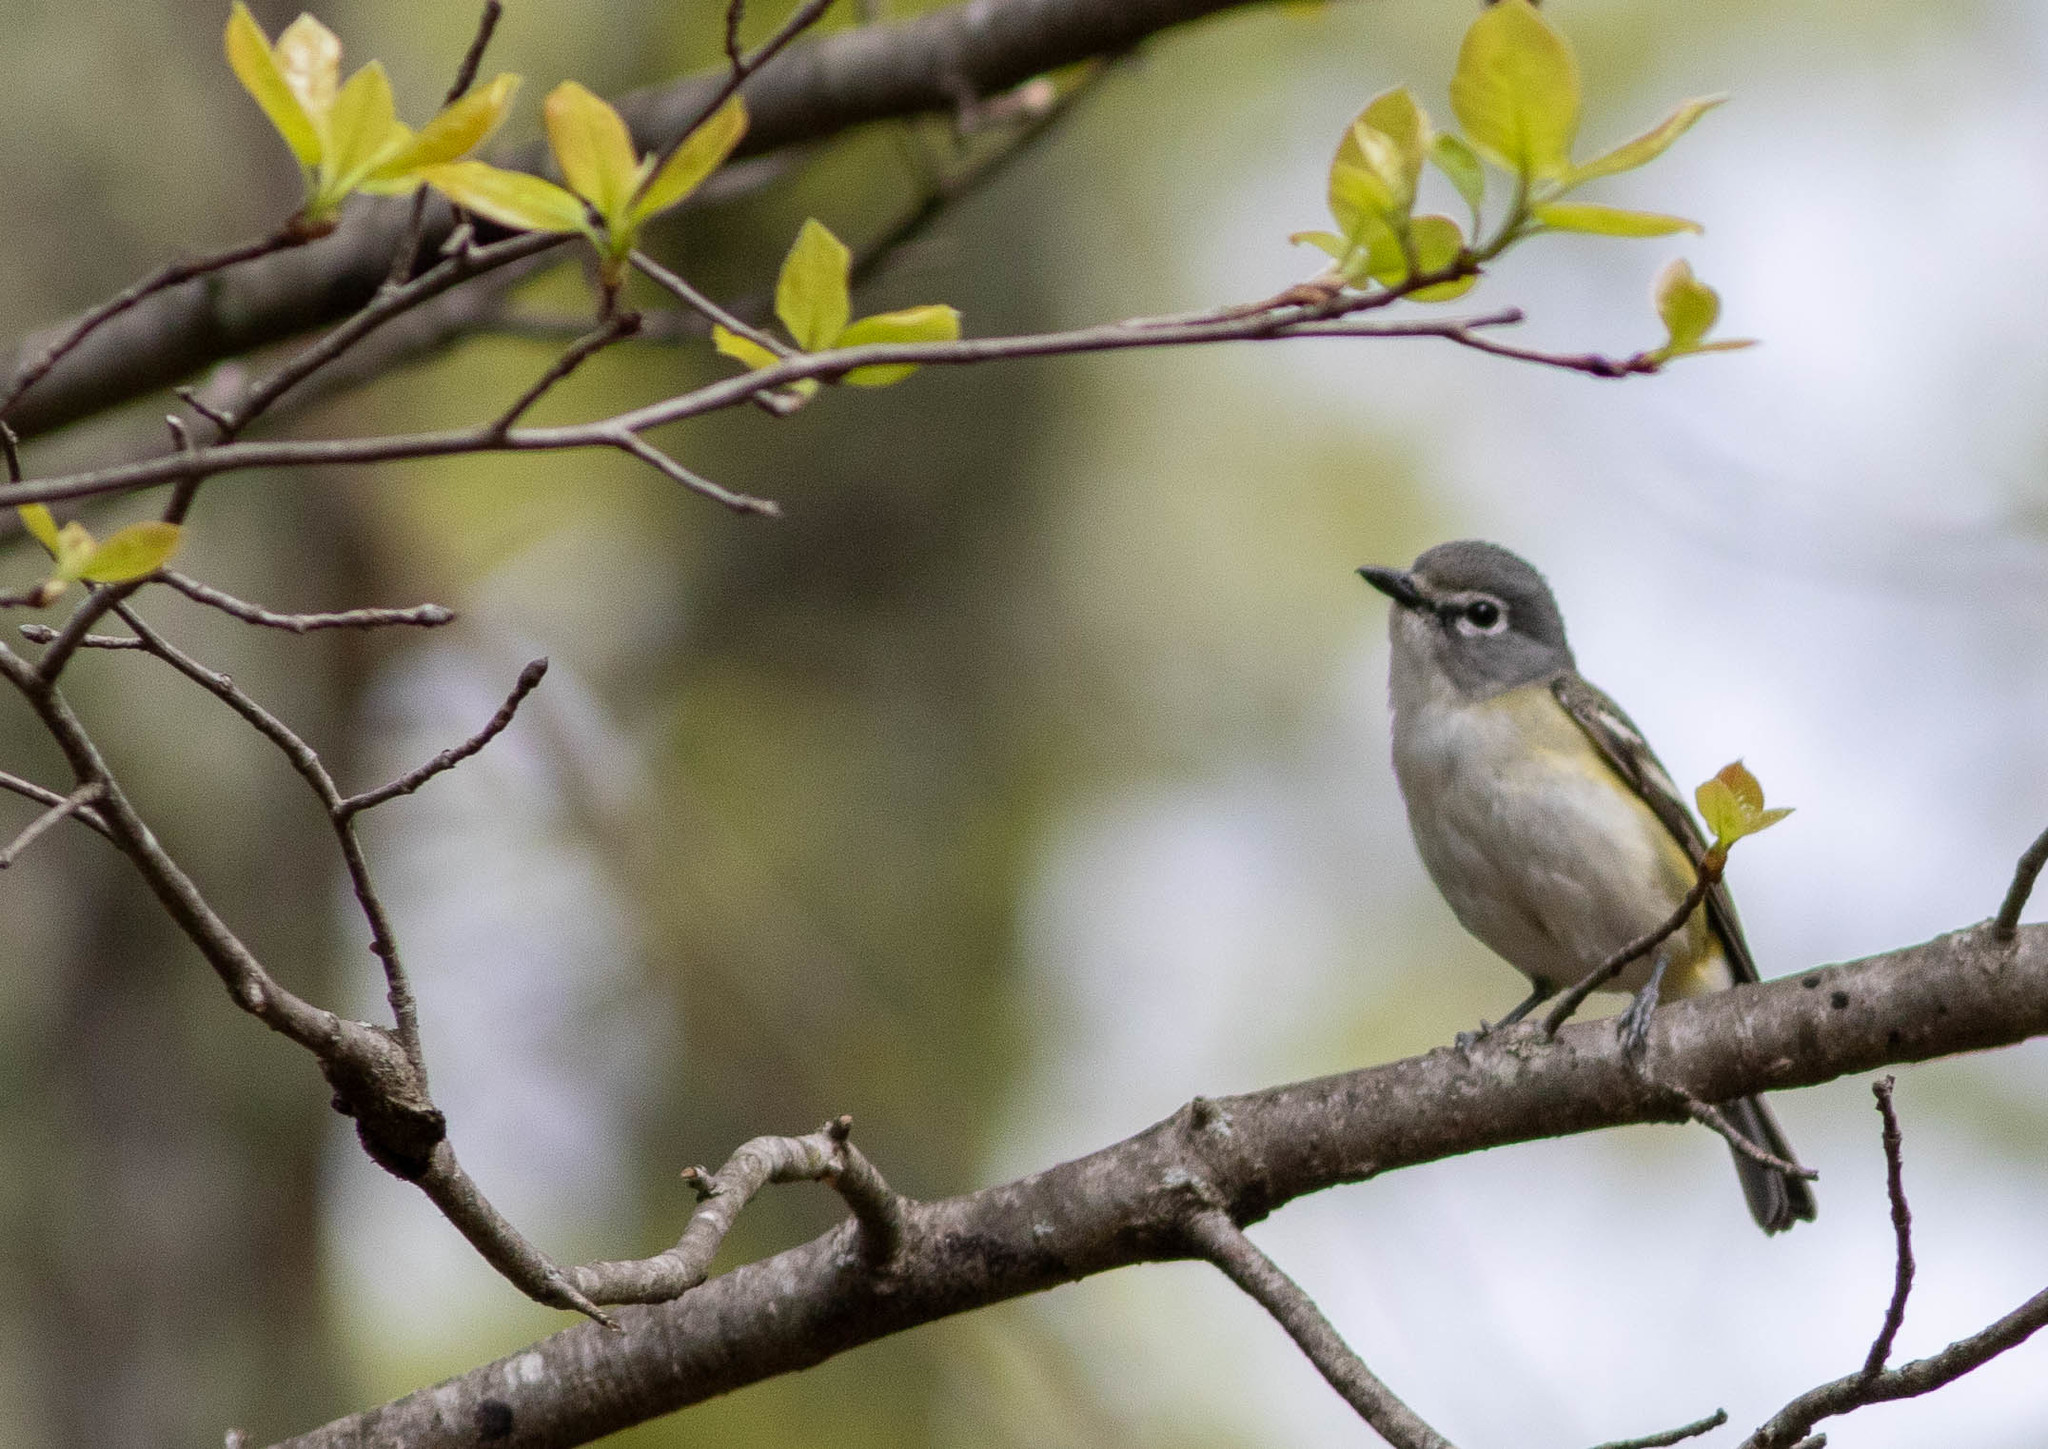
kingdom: Animalia
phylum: Chordata
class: Aves
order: Passeriformes
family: Vireonidae
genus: Vireo
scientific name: Vireo solitarius
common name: Blue-headed vireo
